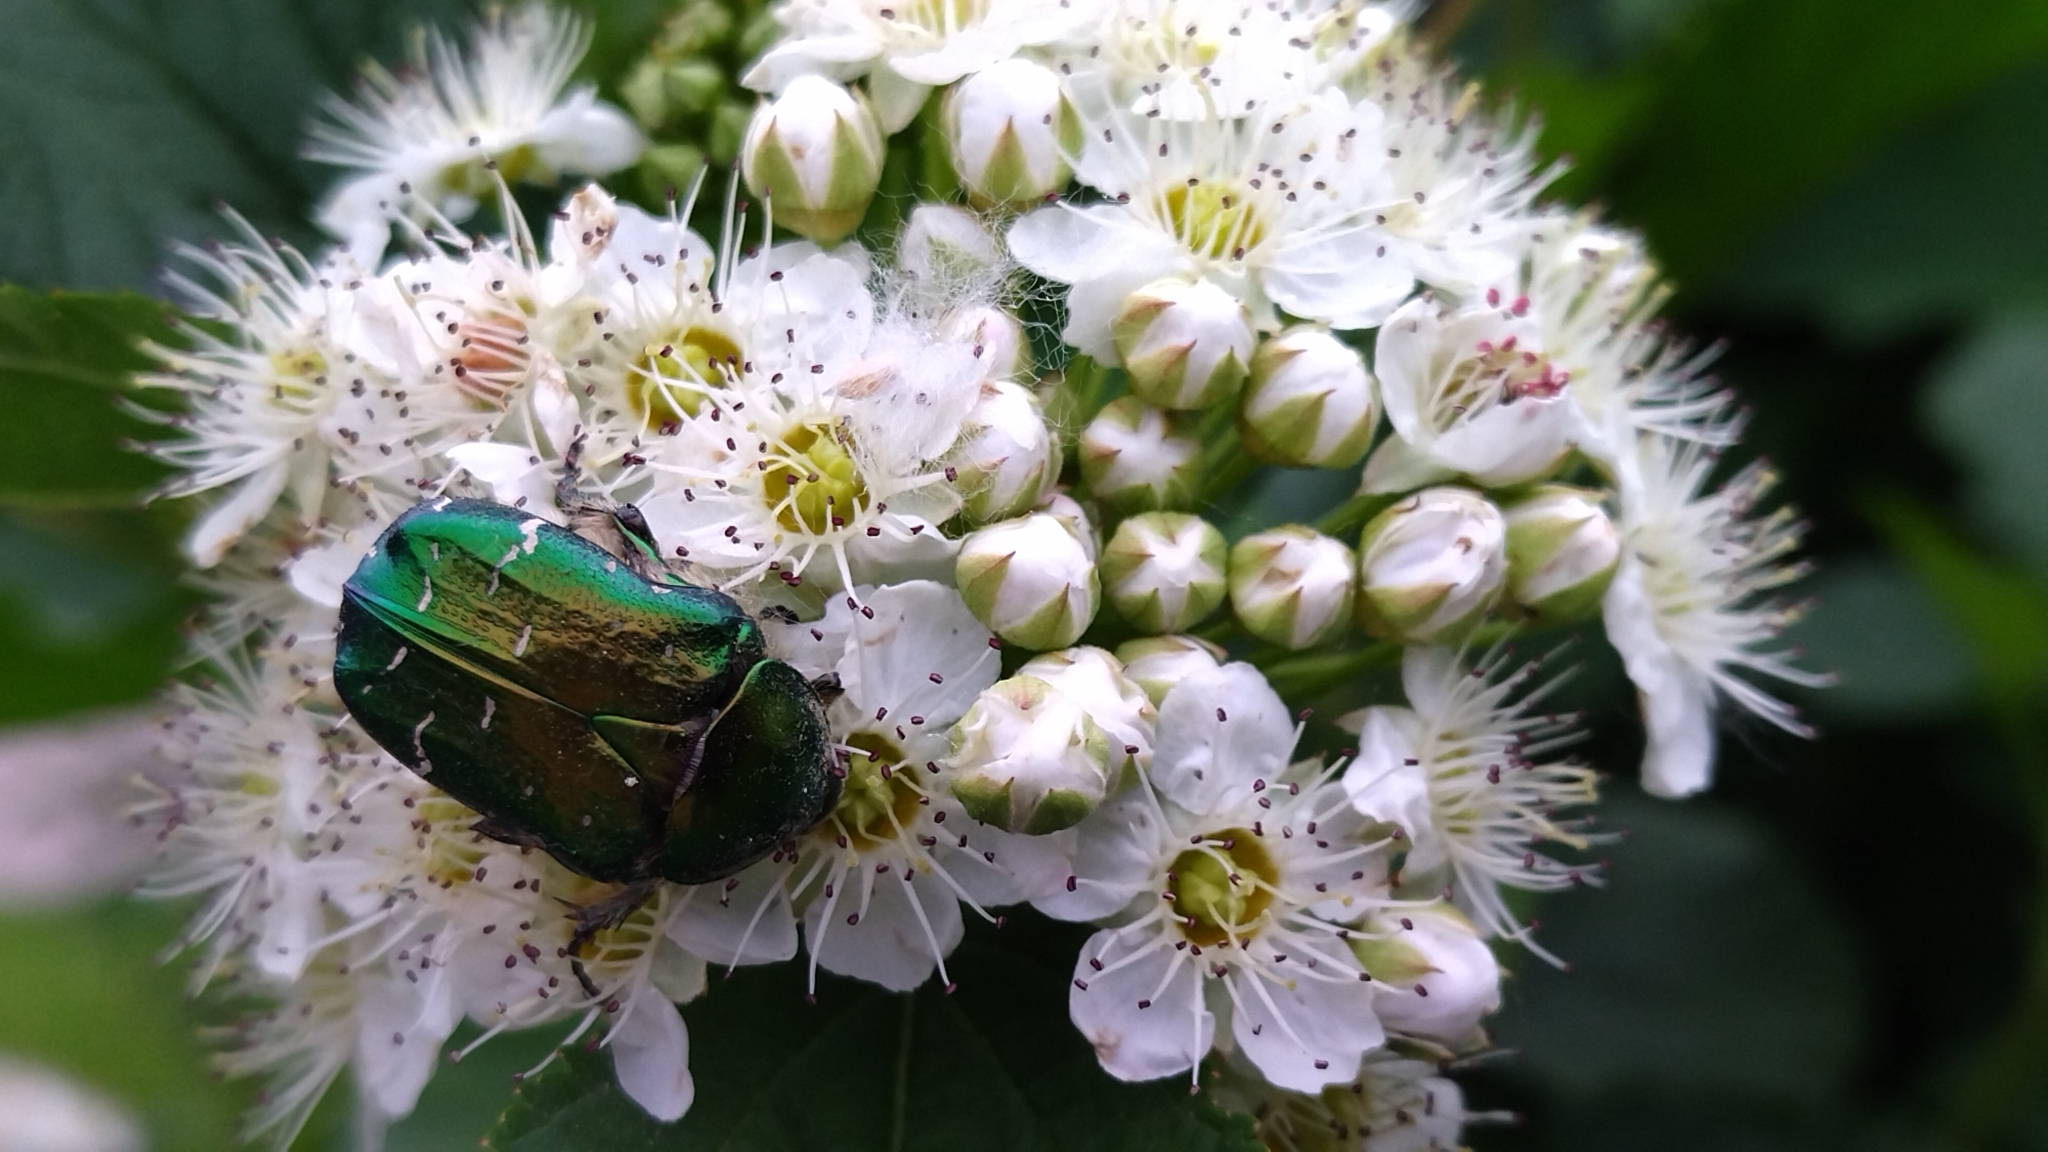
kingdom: Animalia
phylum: Arthropoda
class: Insecta
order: Coleoptera
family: Scarabaeidae
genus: Cetonia
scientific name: Cetonia aurata
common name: Rose chafer
